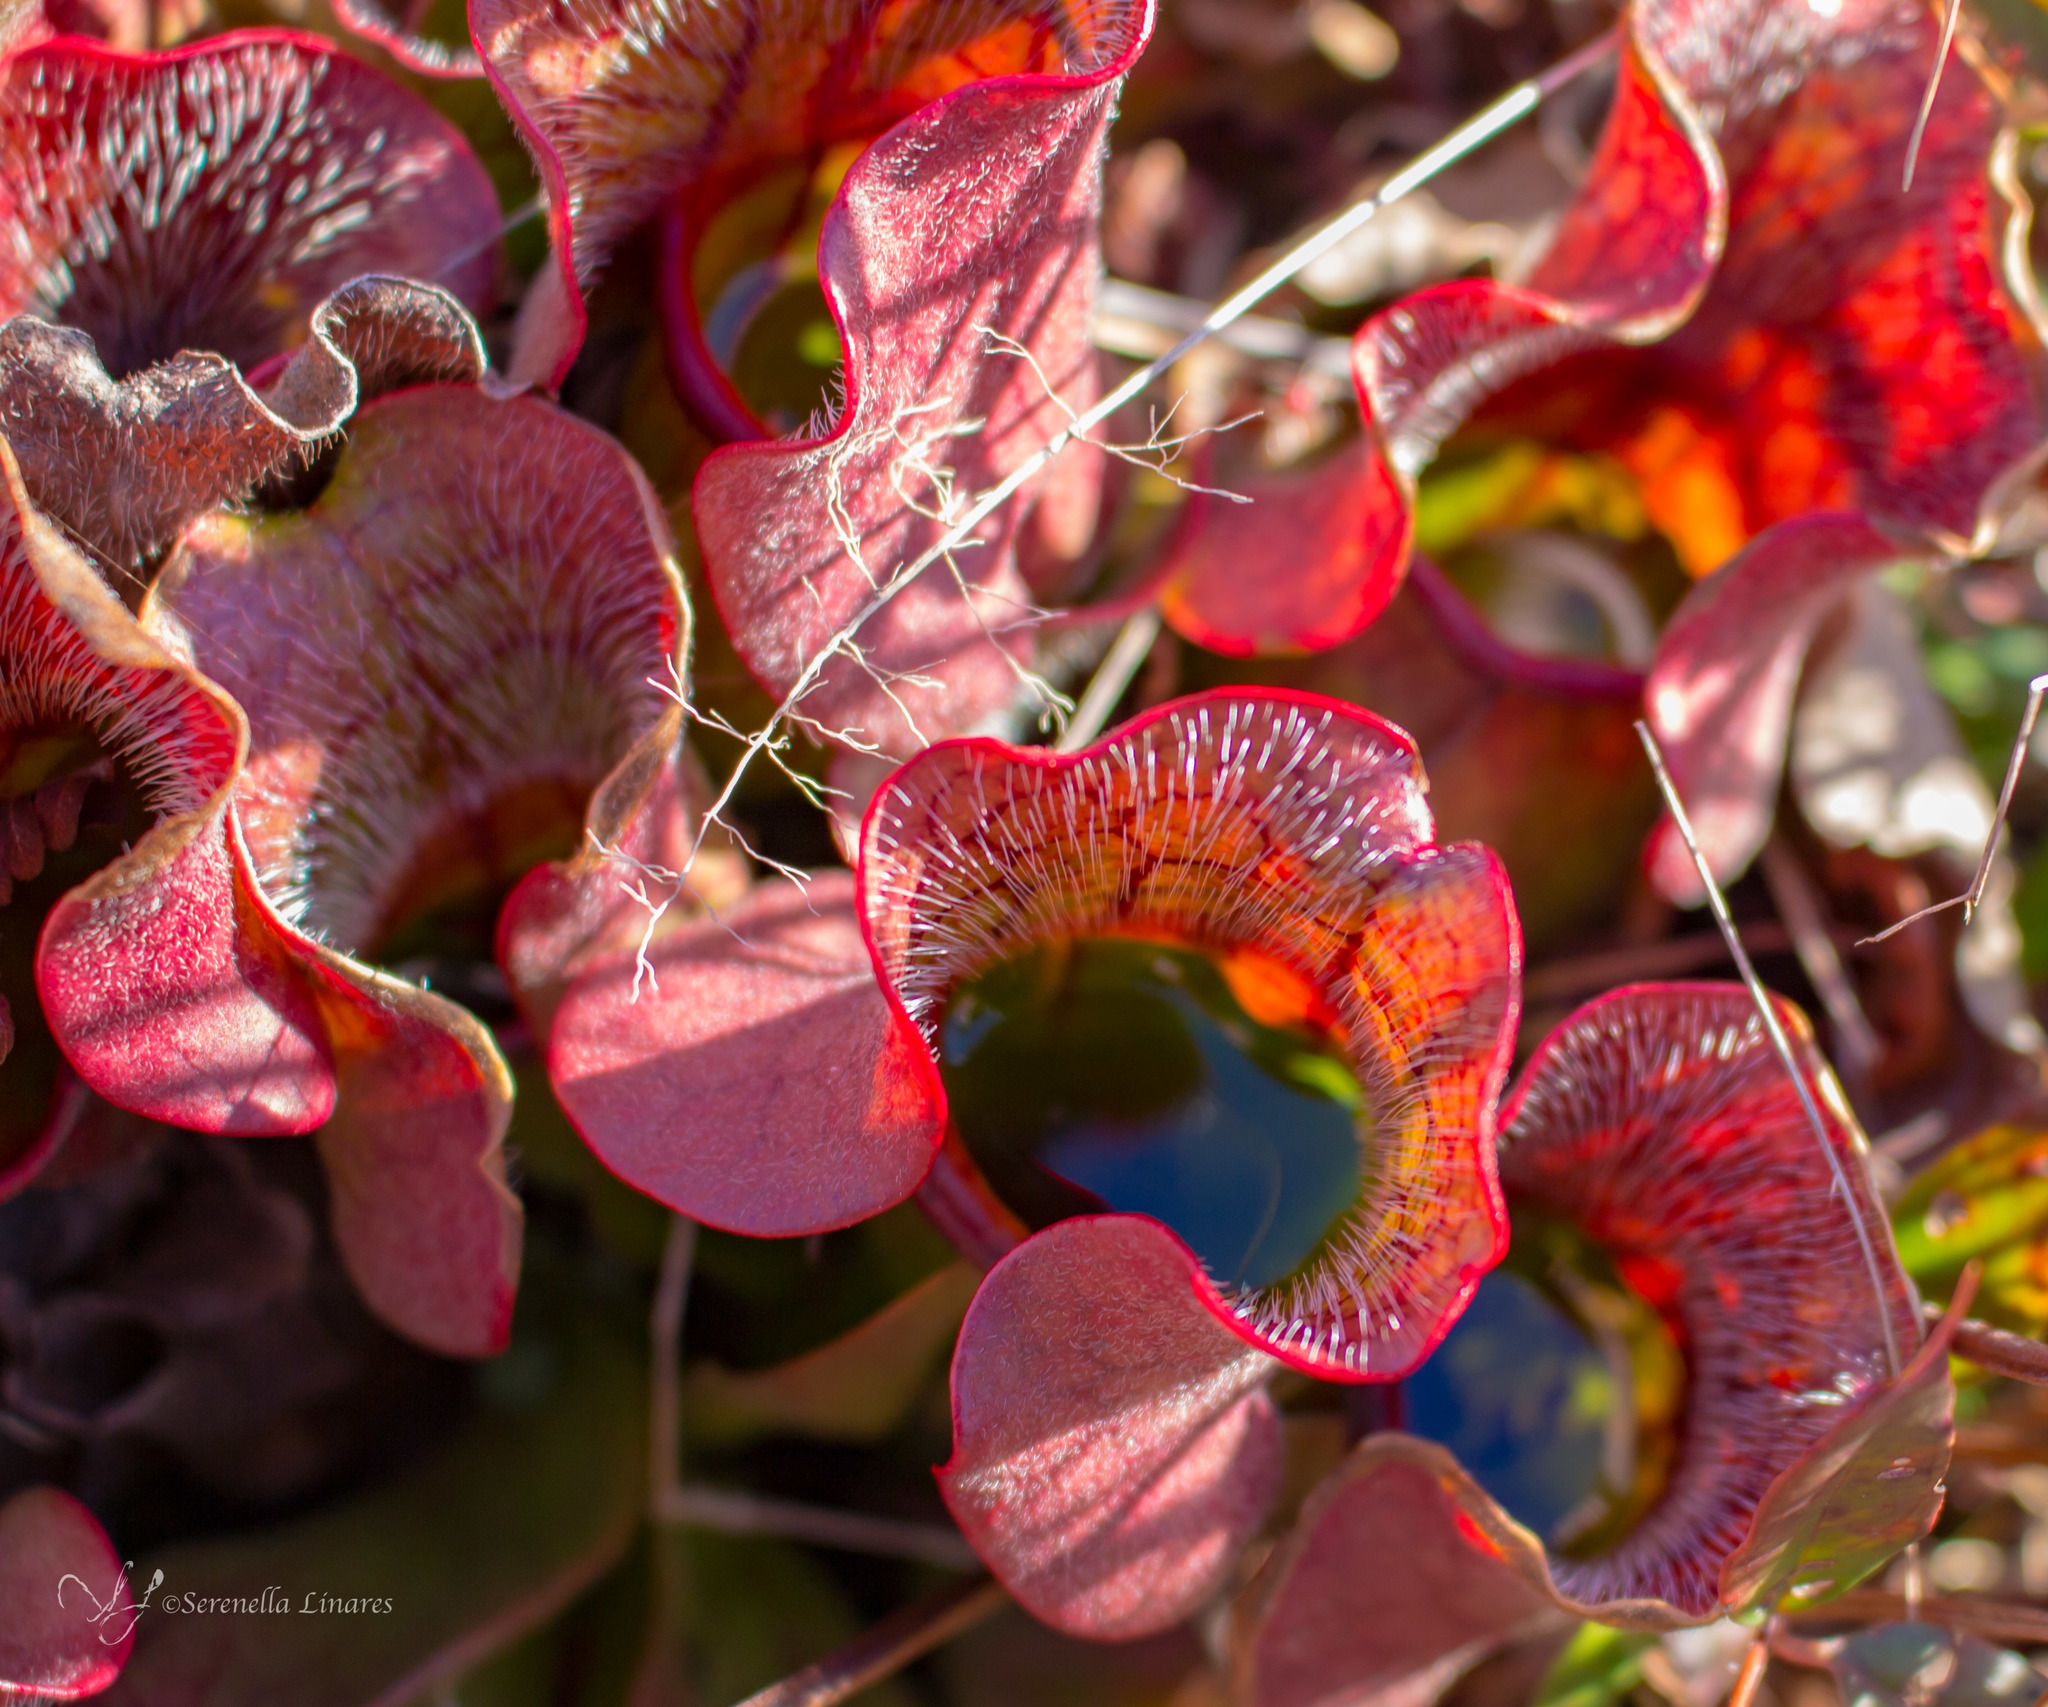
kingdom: Plantae
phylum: Tracheophyta
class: Magnoliopsida
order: Ericales
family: Sarraceniaceae
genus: Sarracenia
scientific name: Sarracenia purpurea
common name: Pitcherplant
